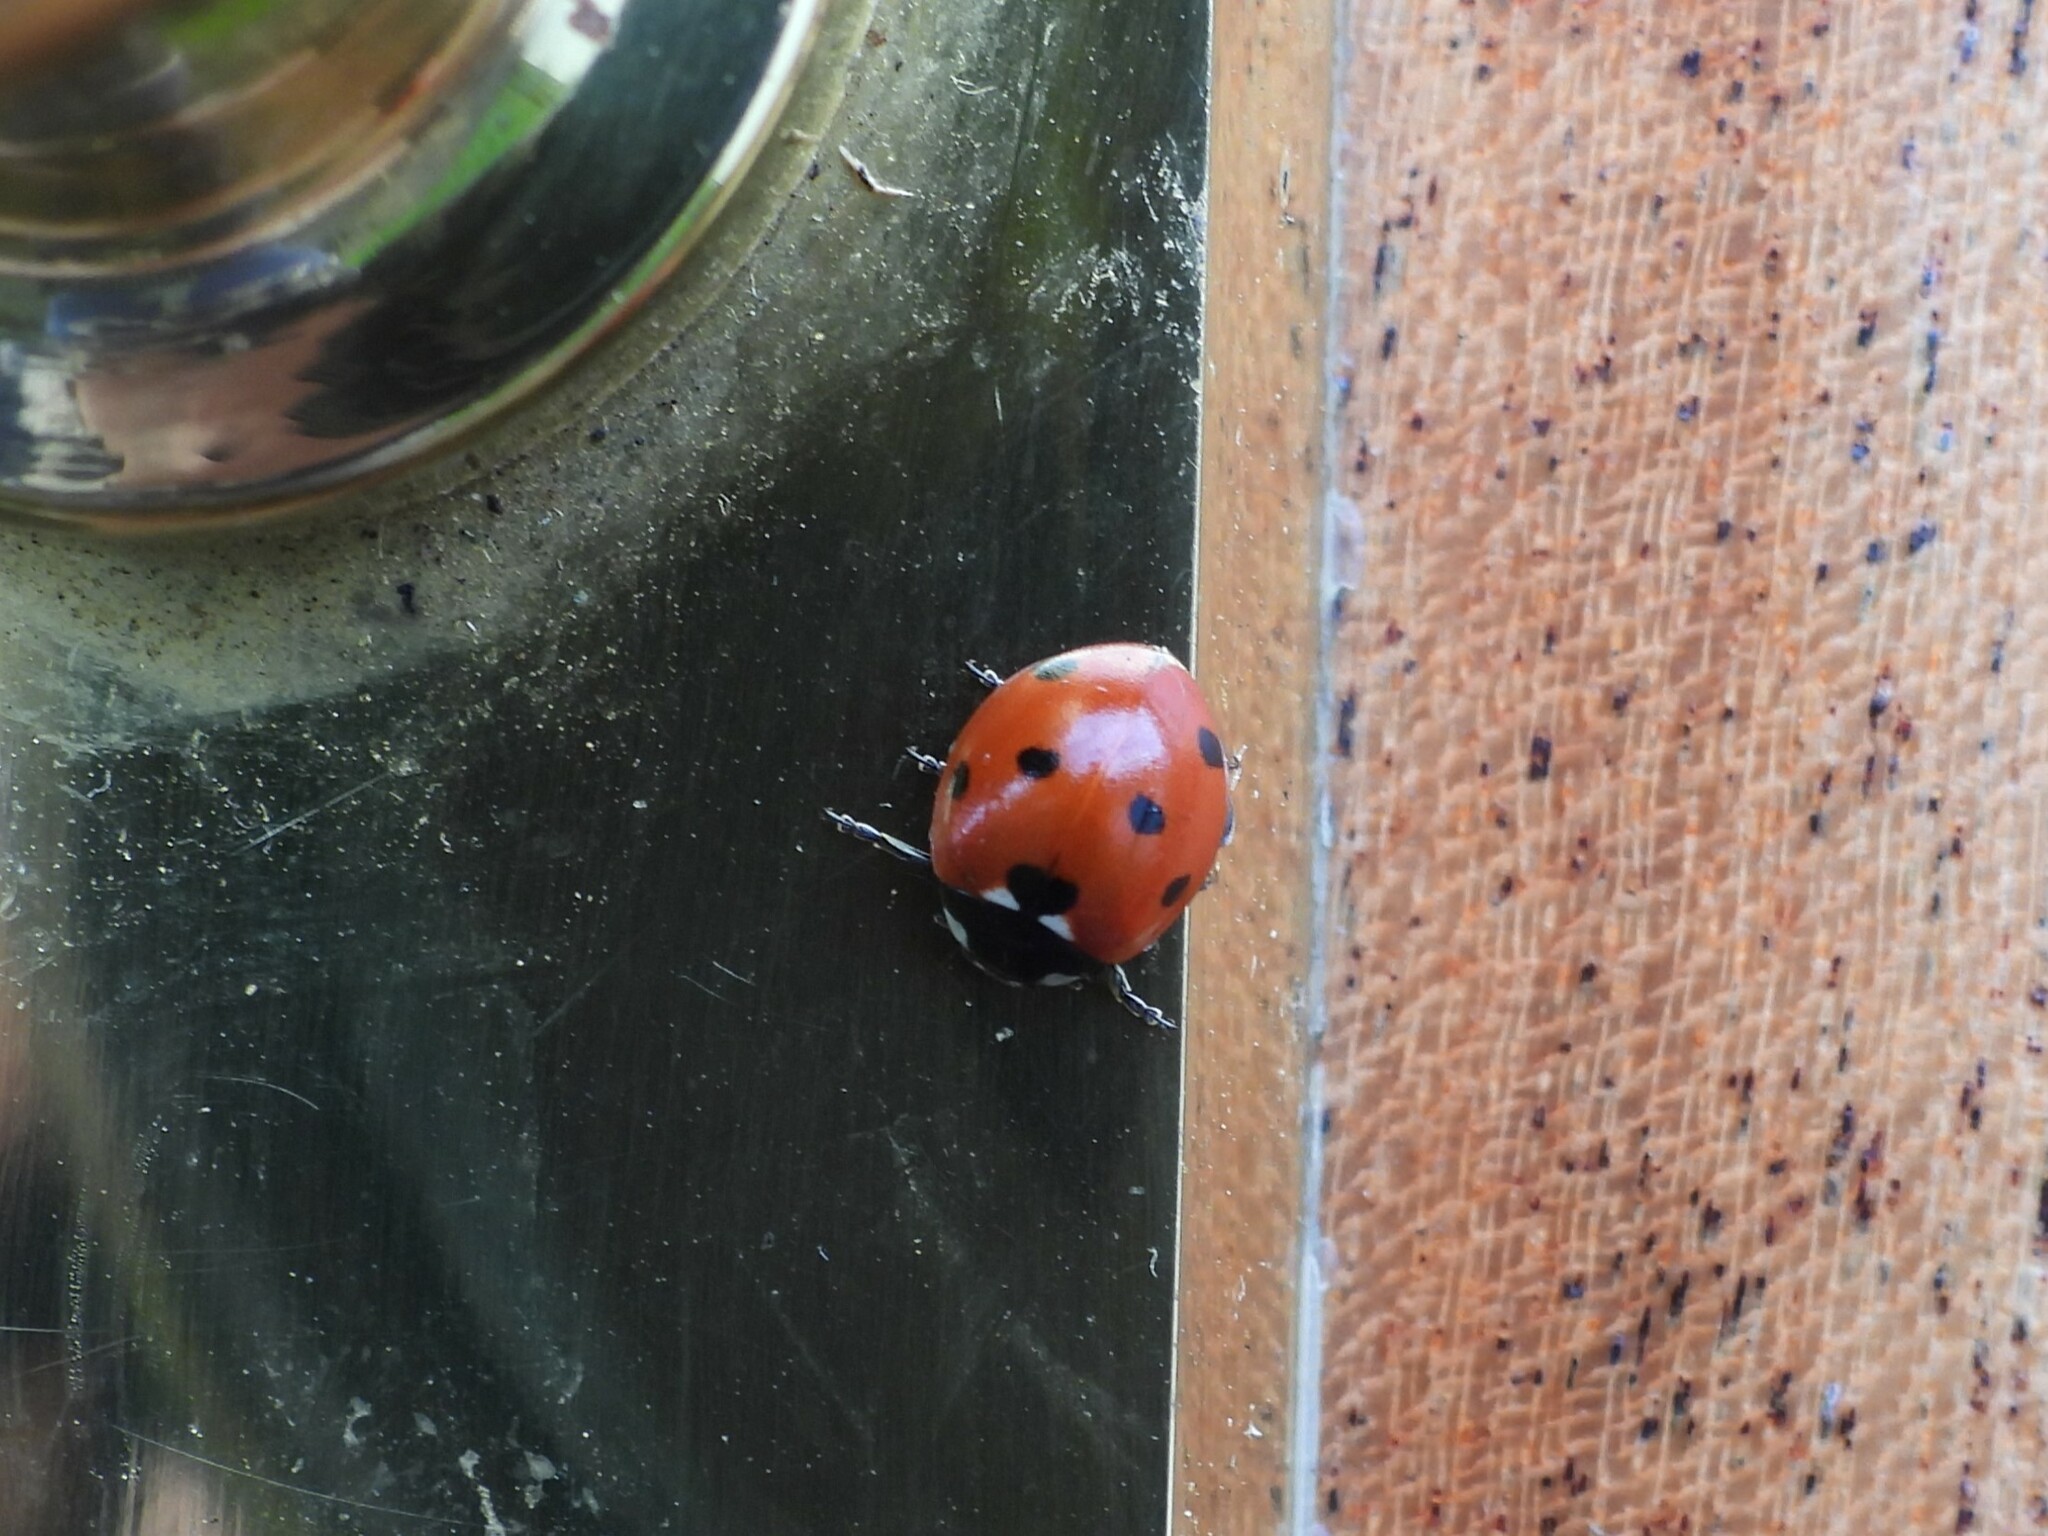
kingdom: Animalia
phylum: Arthropoda
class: Insecta
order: Coleoptera
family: Coccinellidae
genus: Coccinella
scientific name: Coccinella septempunctata
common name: Sevenspotted lady beetle
